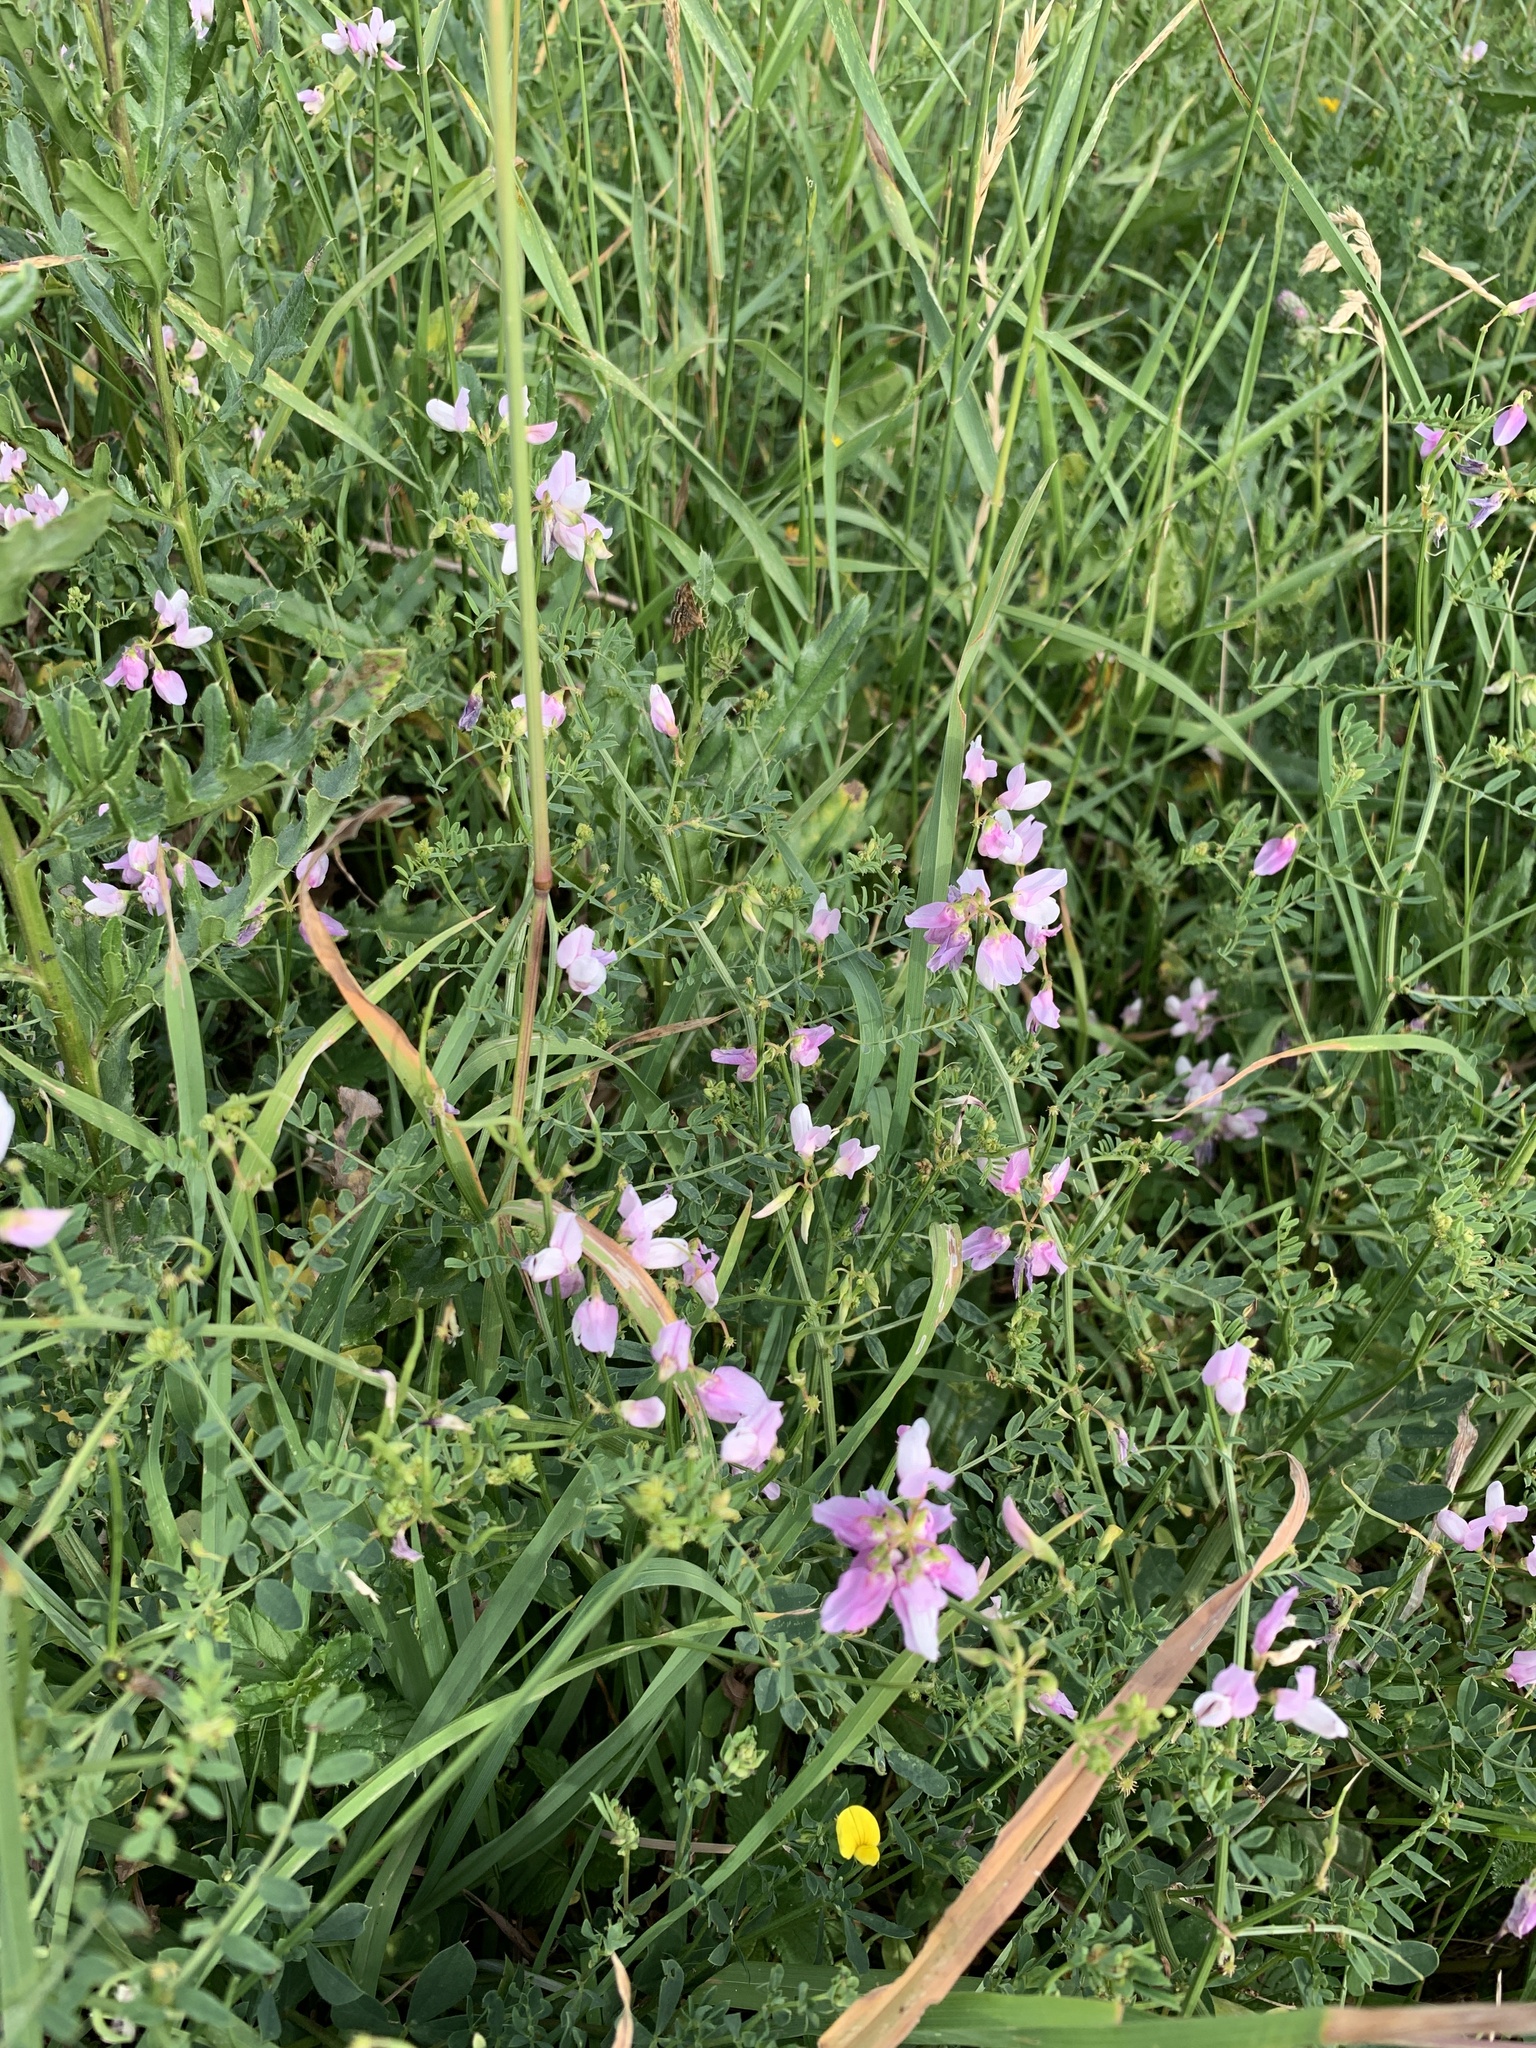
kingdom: Plantae
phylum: Tracheophyta
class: Magnoliopsida
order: Fabales
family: Fabaceae
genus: Coronilla
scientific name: Coronilla varia
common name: Crownvetch
